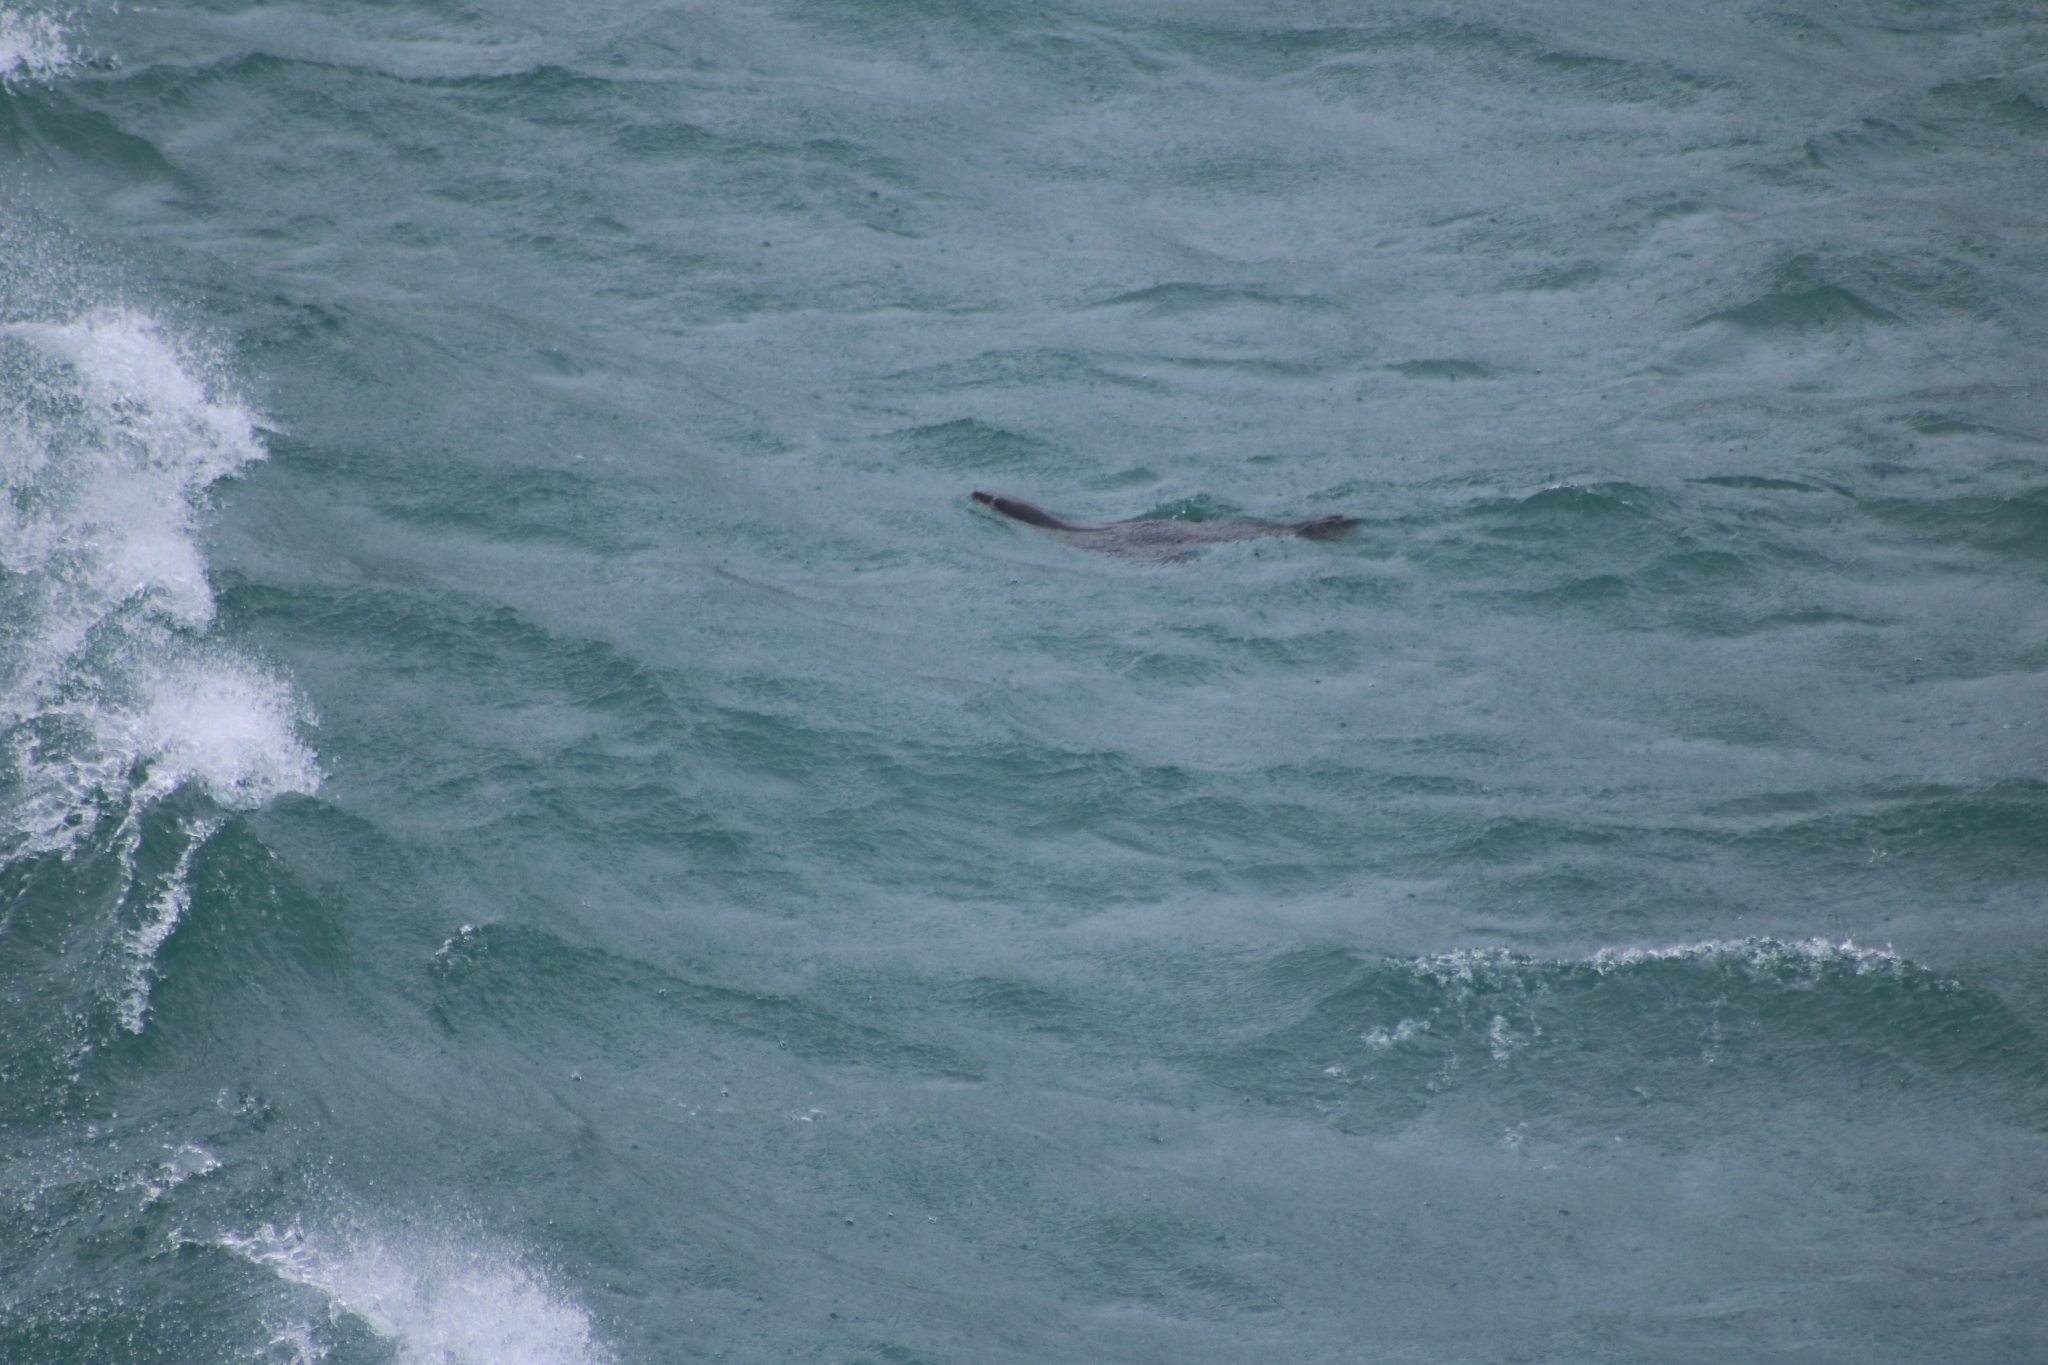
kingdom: Animalia
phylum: Chordata
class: Mammalia
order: Carnivora
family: Otariidae
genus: Arctocephalus
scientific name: Arctocephalus forsteri
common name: New zealand fur seal
